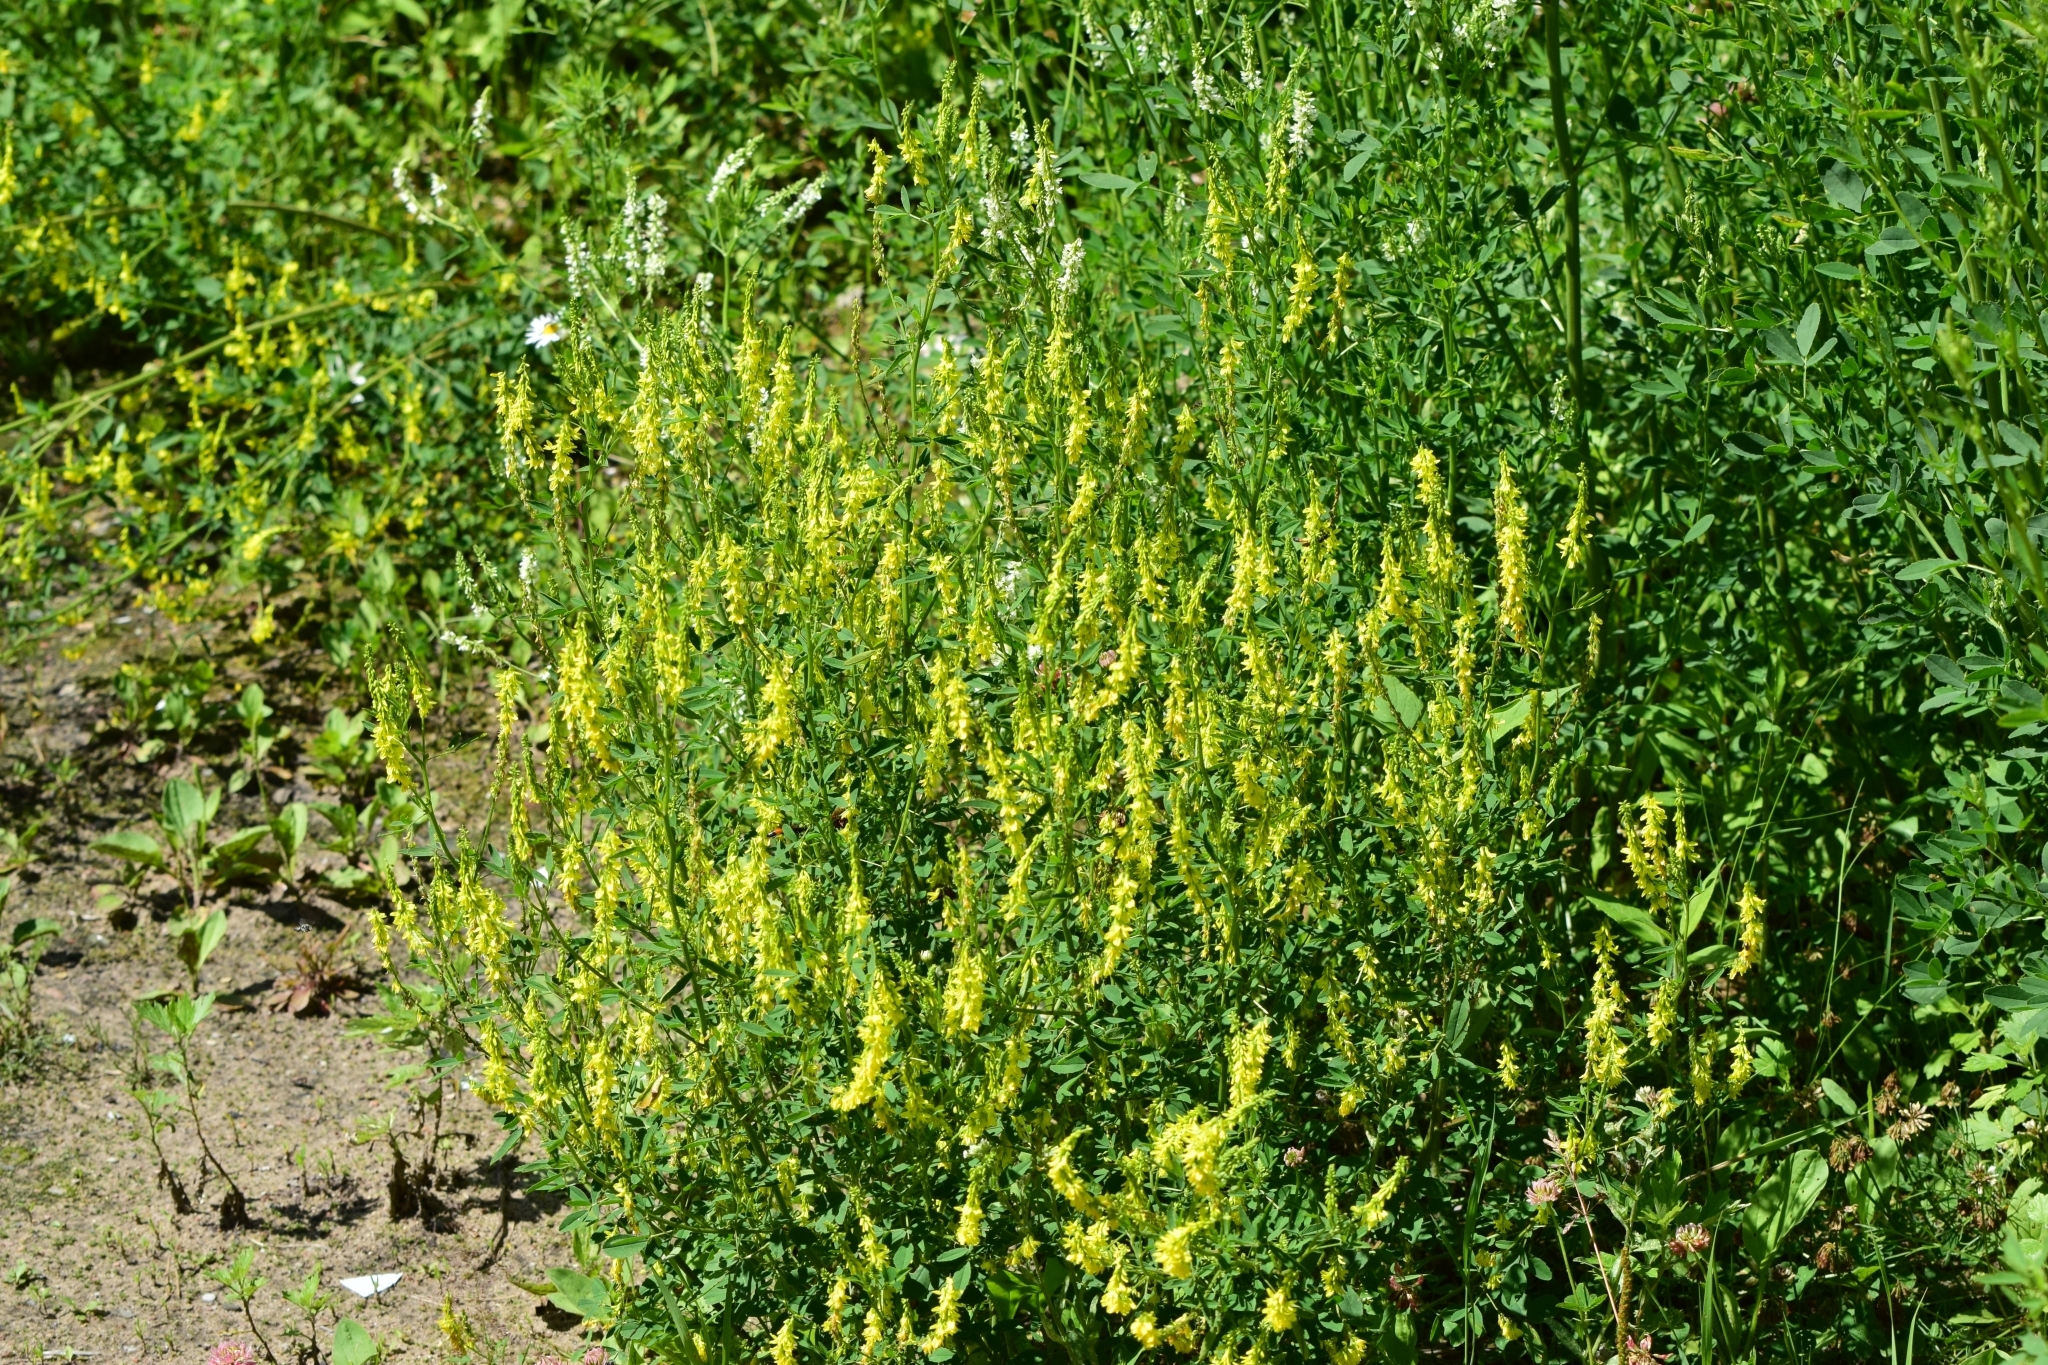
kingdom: Plantae
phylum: Tracheophyta
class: Magnoliopsida
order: Fabales
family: Fabaceae
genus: Melilotus
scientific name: Melilotus officinalis
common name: Sweetclover
